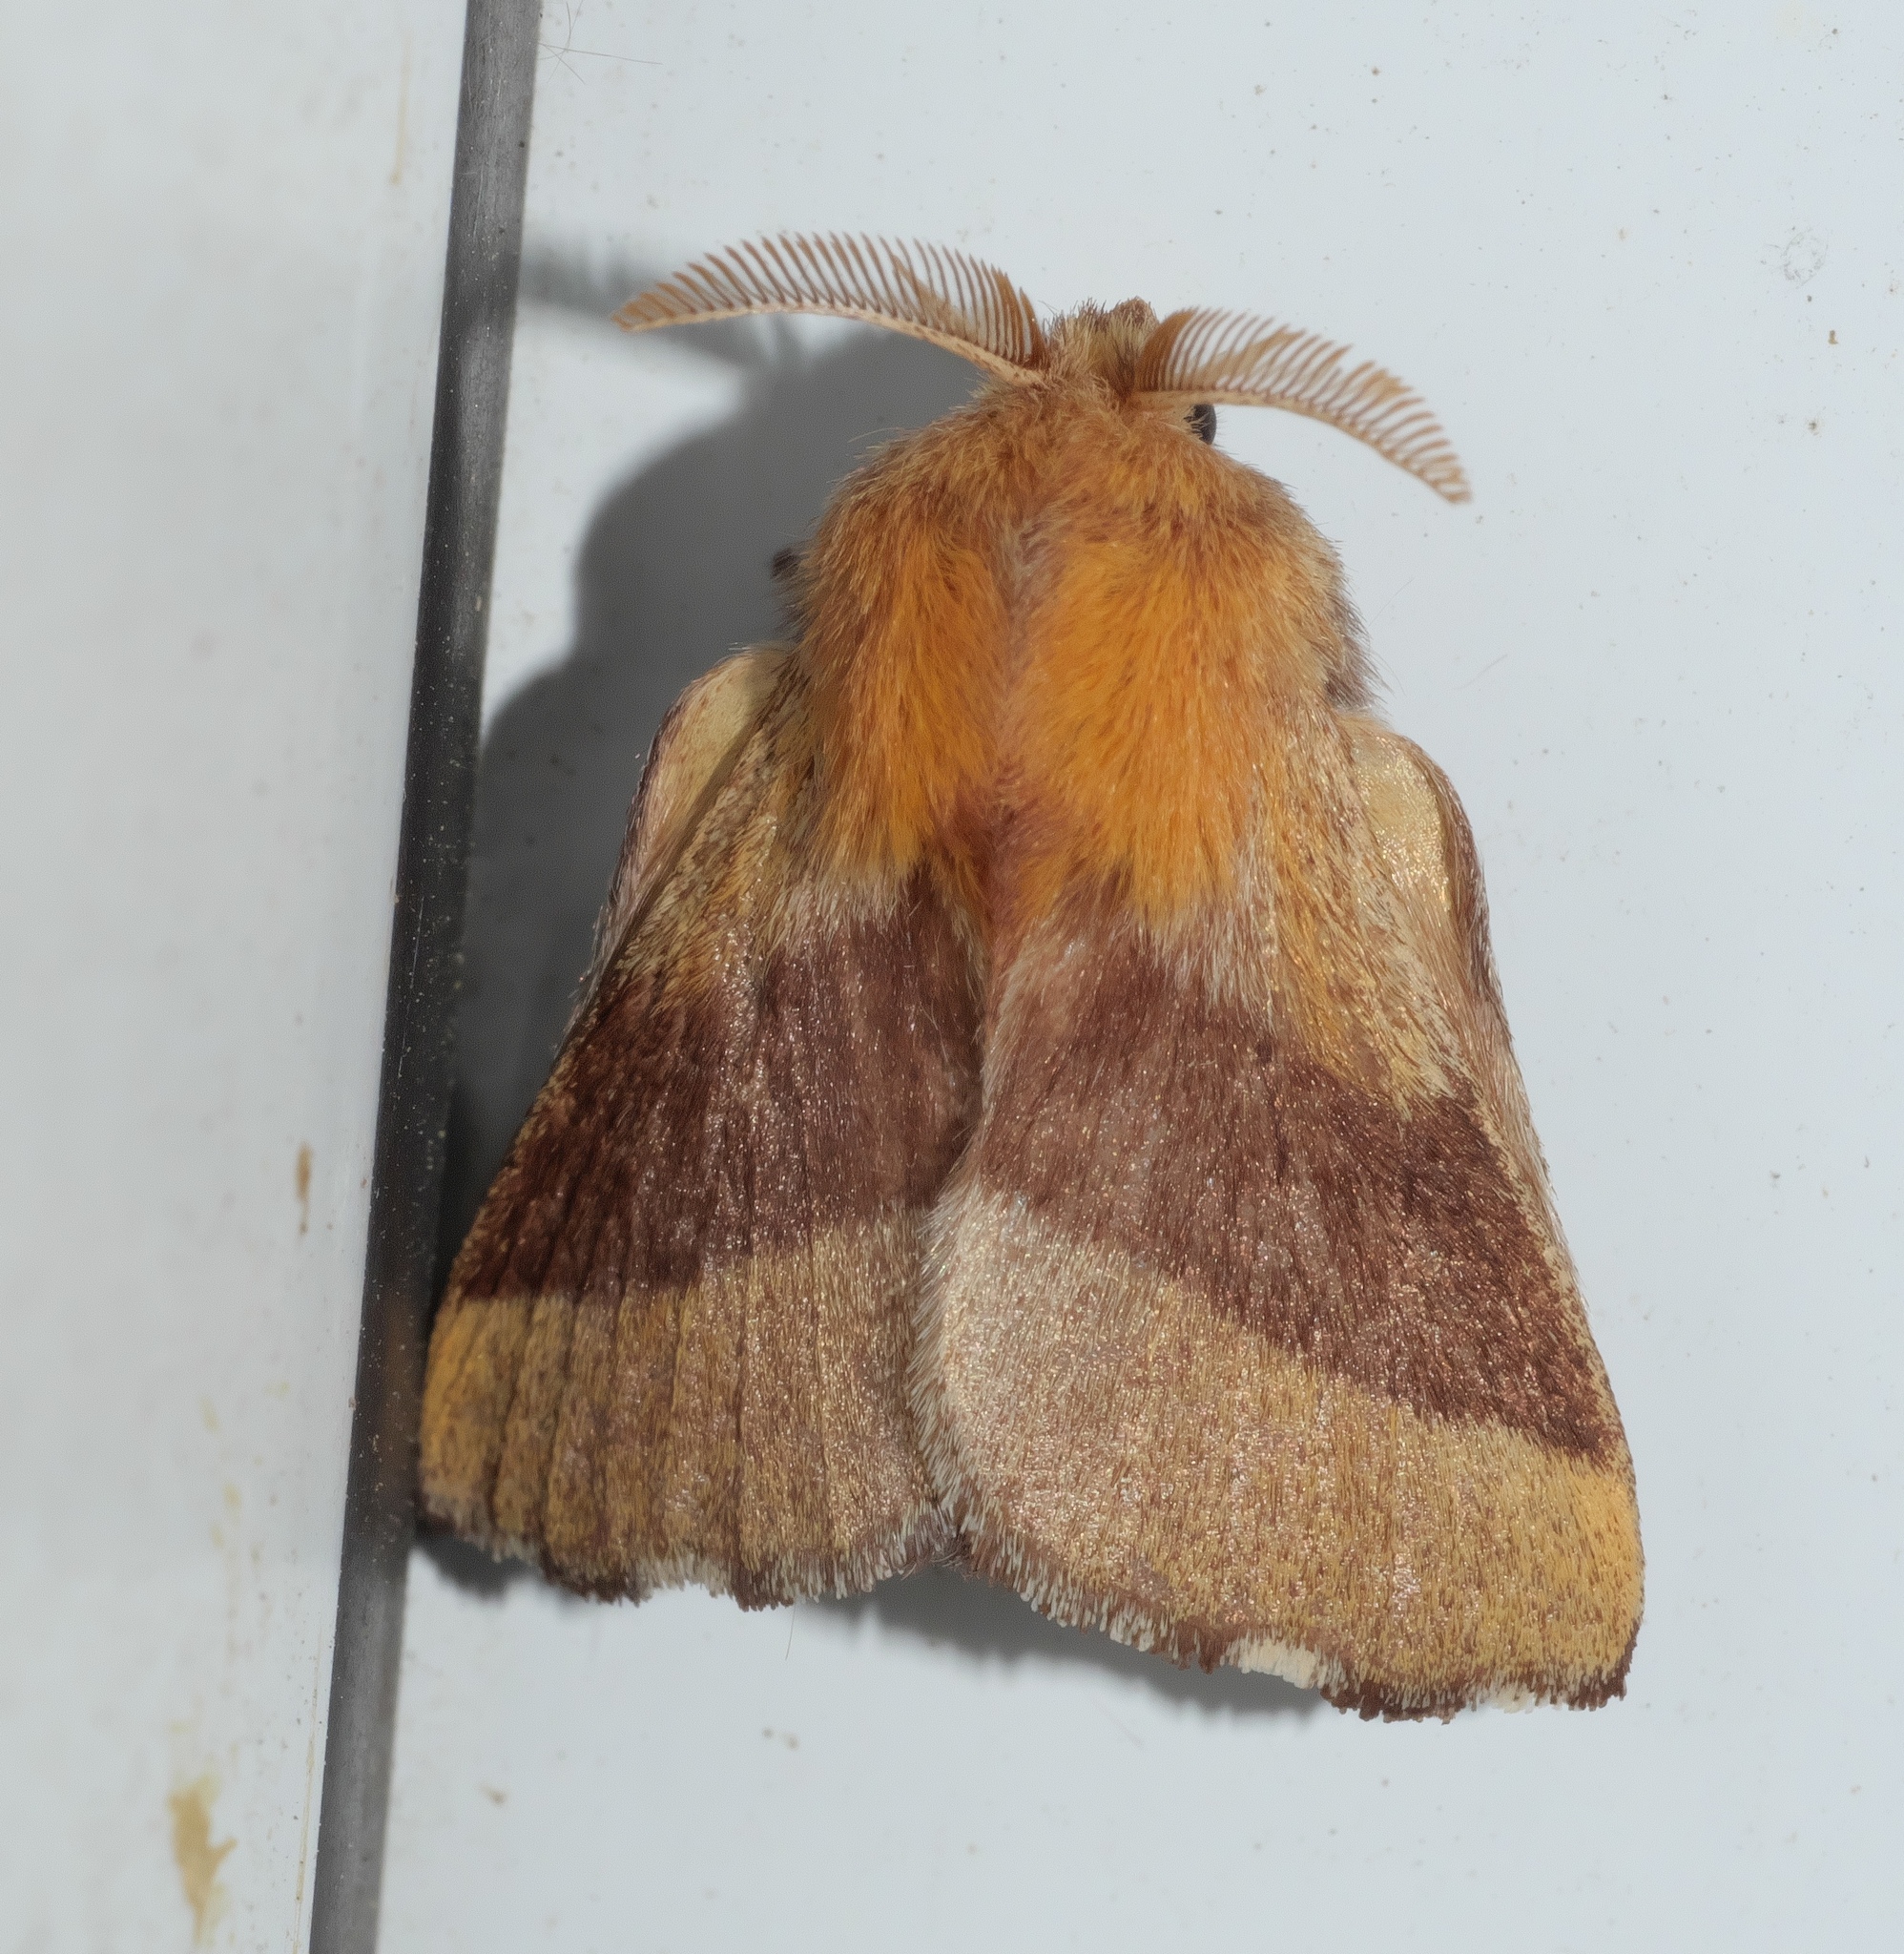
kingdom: Animalia
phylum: Arthropoda
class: Insecta
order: Lepidoptera
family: Lasiocampidae
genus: Malacosoma
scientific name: Malacosoma disstria
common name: Forest tent caterpillar
